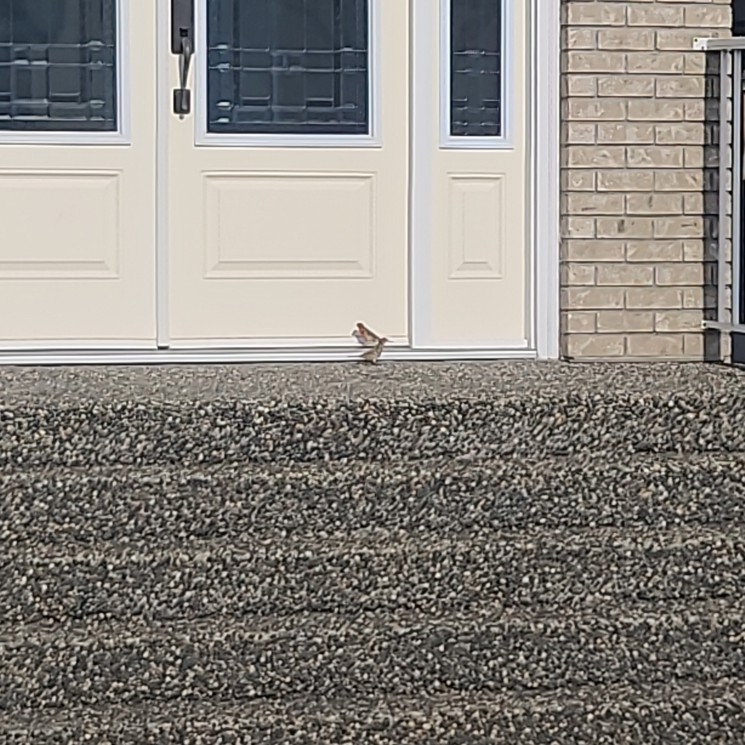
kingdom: Animalia
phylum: Chordata
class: Aves
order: Passeriformes
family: Fringillidae
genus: Haemorhous
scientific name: Haemorhous mexicanus
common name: House finch
